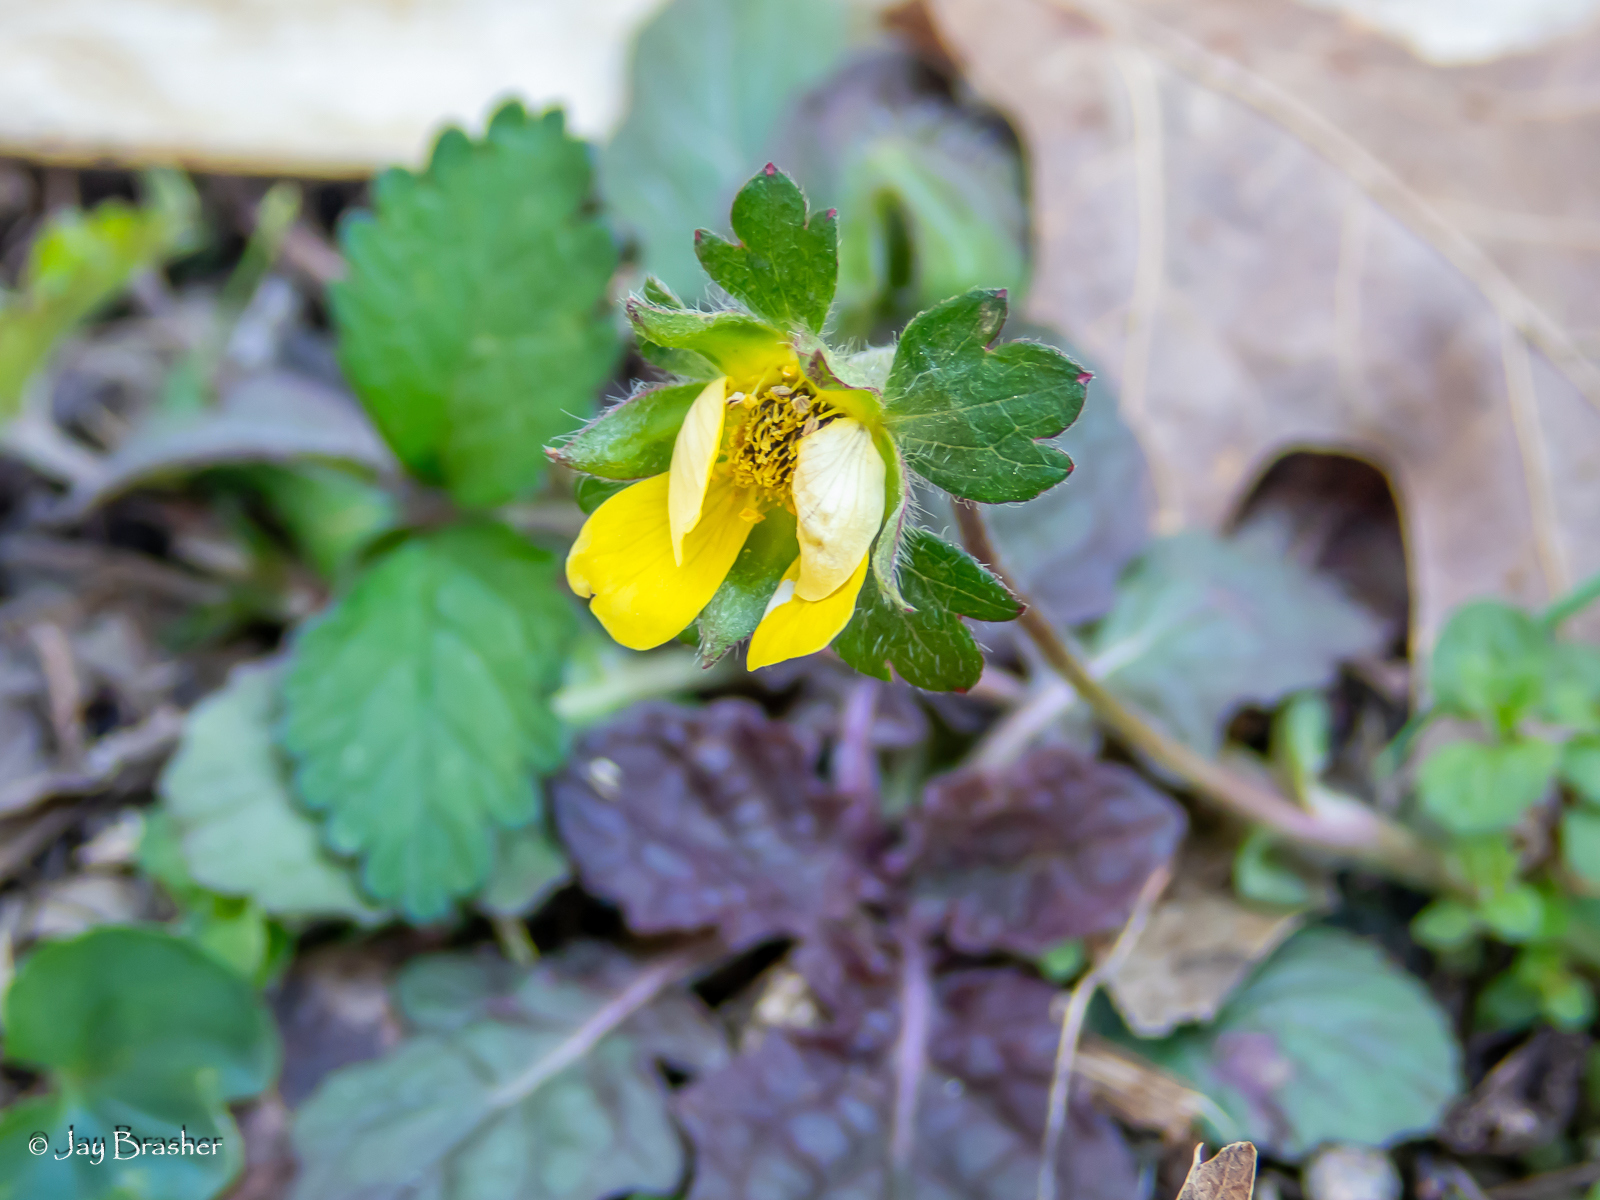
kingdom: Plantae
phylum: Tracheophyta
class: Magnoliopsida
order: Rosales
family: Rosaceae
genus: Potentilla
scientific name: Potentilla indica
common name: Yellow-flowered strawberry
